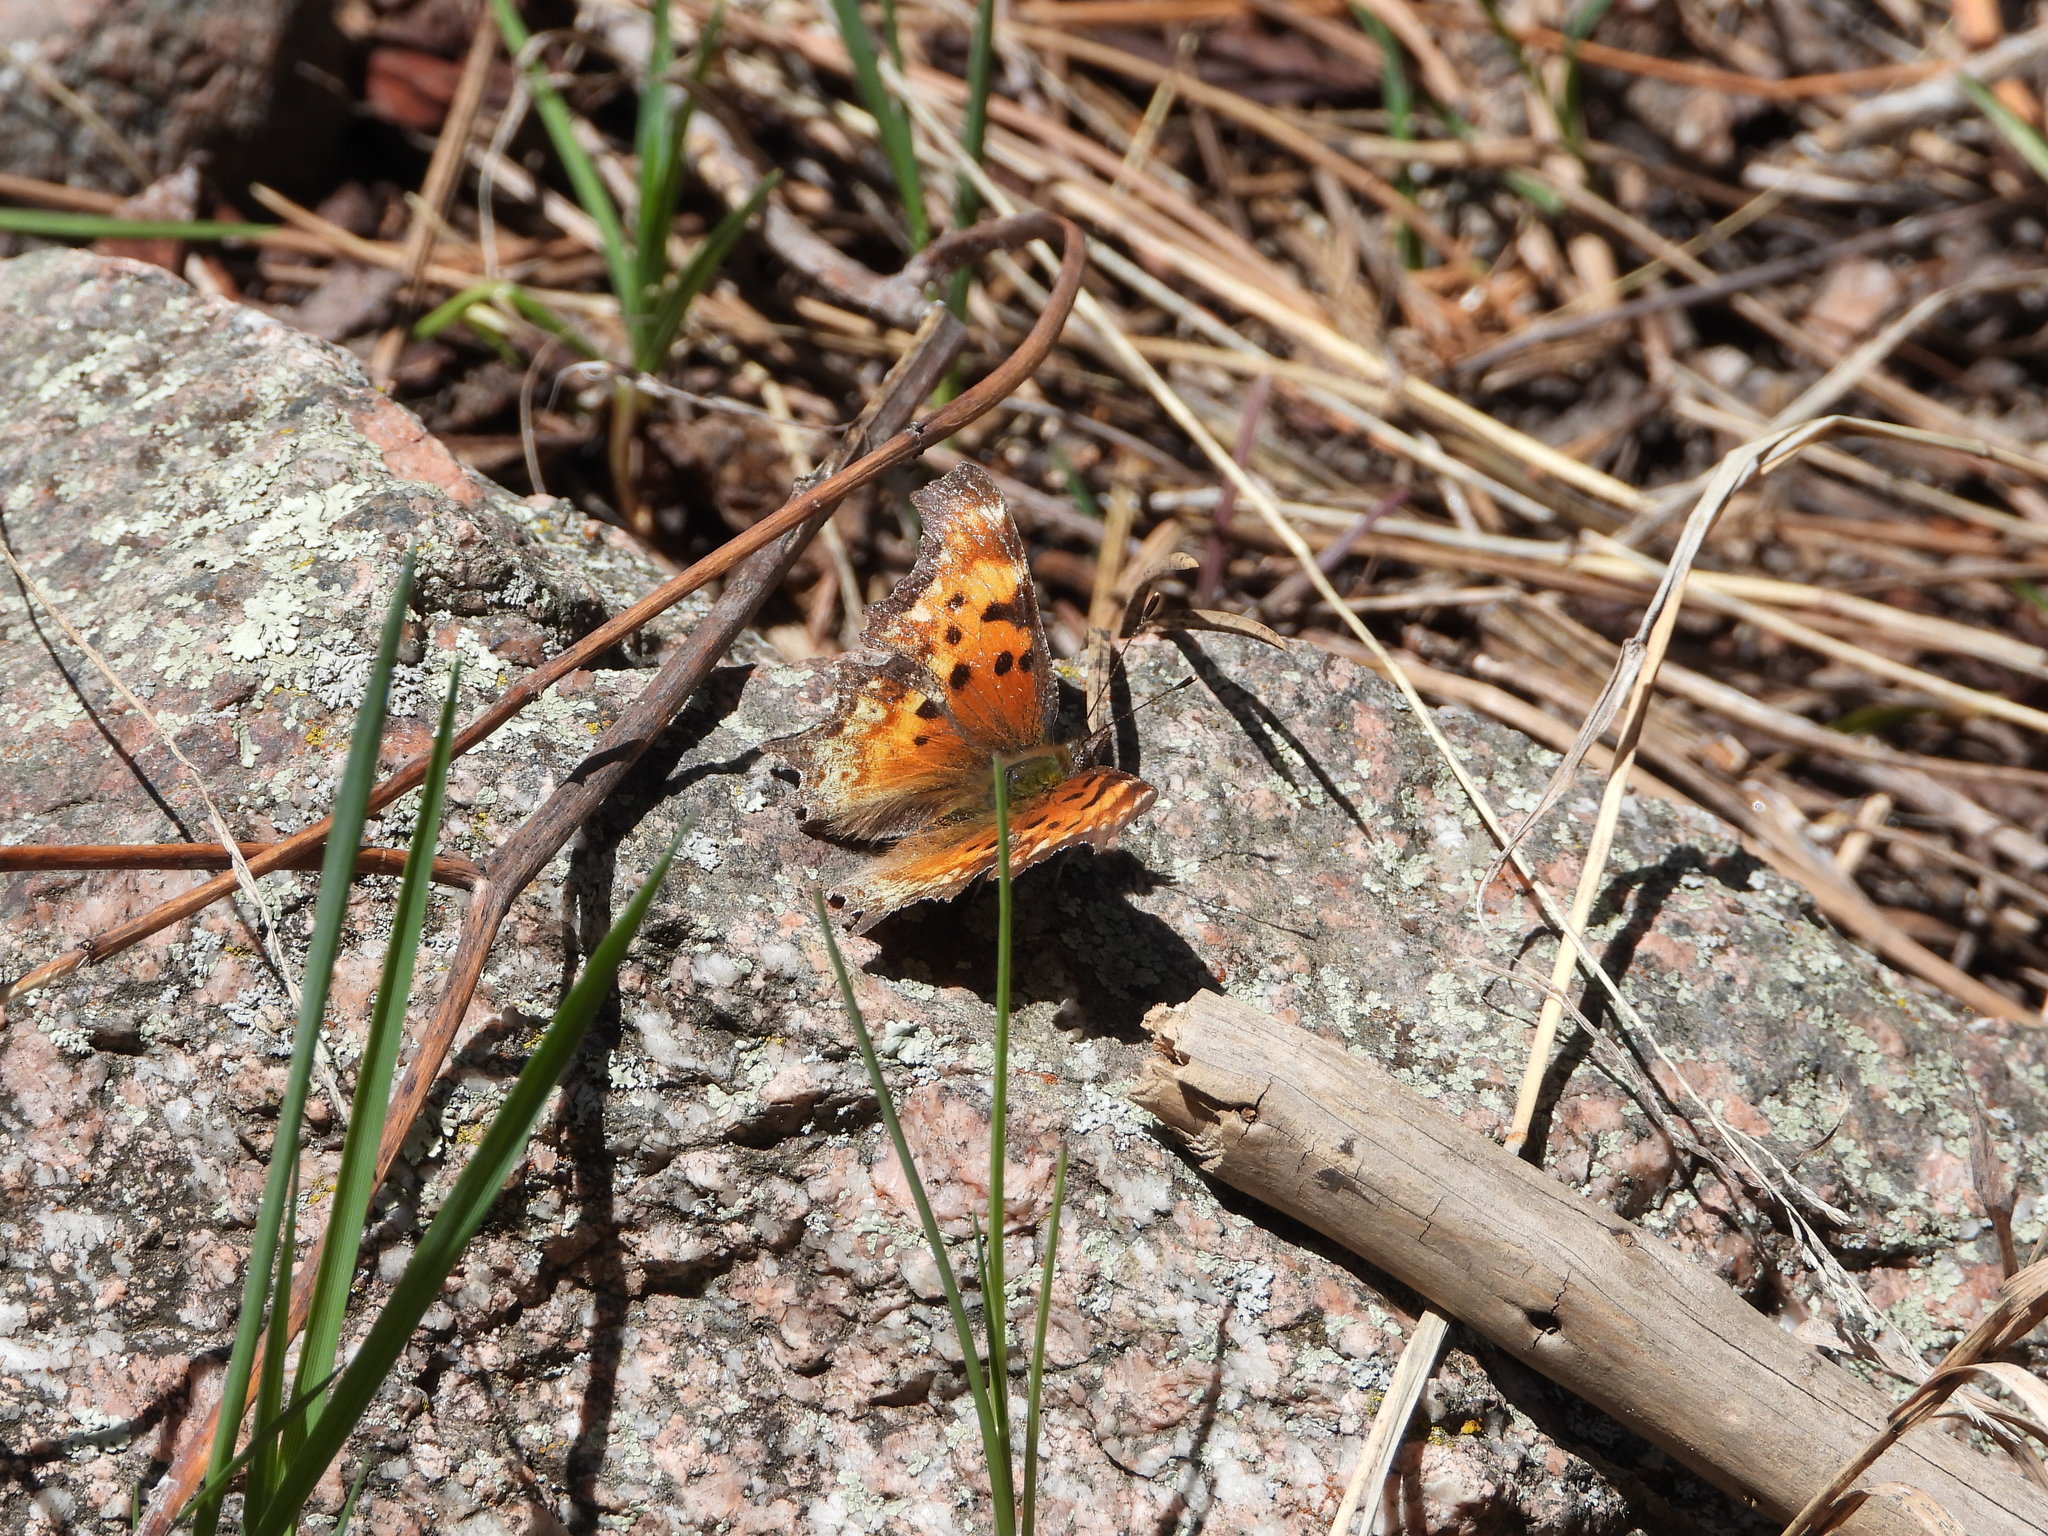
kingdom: Animalia
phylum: Arthropoda
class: Insecta
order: Lepidoptera
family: Nymphalidae
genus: Polygonia
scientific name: Polygonia gracilis
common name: Hoary comma
